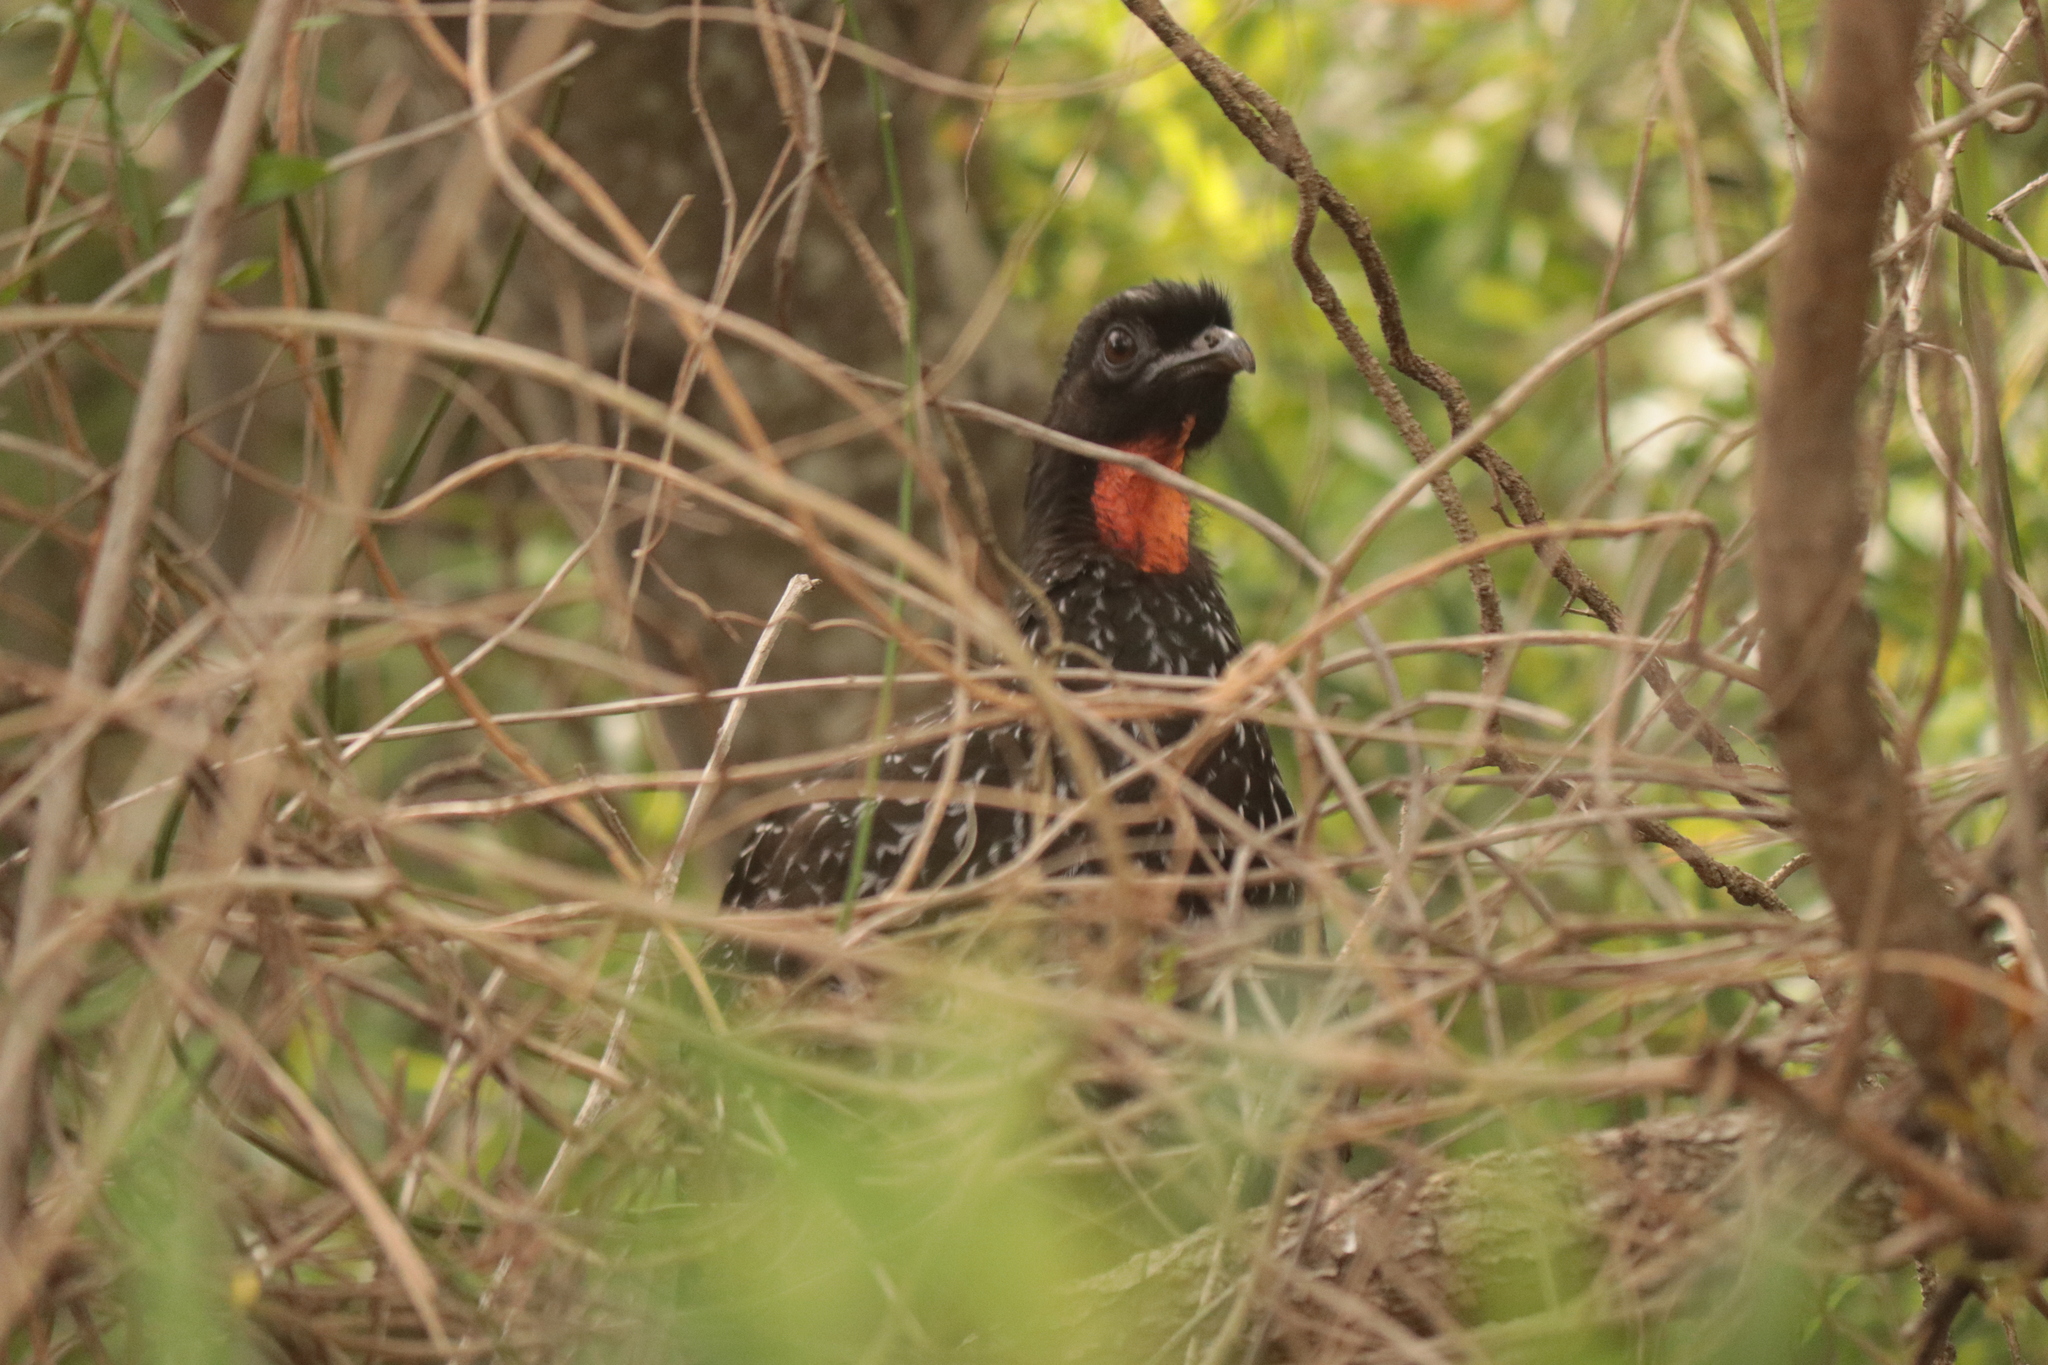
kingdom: Animalia
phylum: Chordata
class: Aves
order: Galliformes
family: Cracidae
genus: Penelope
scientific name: Penelope obscura
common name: Dusky-legged guan
